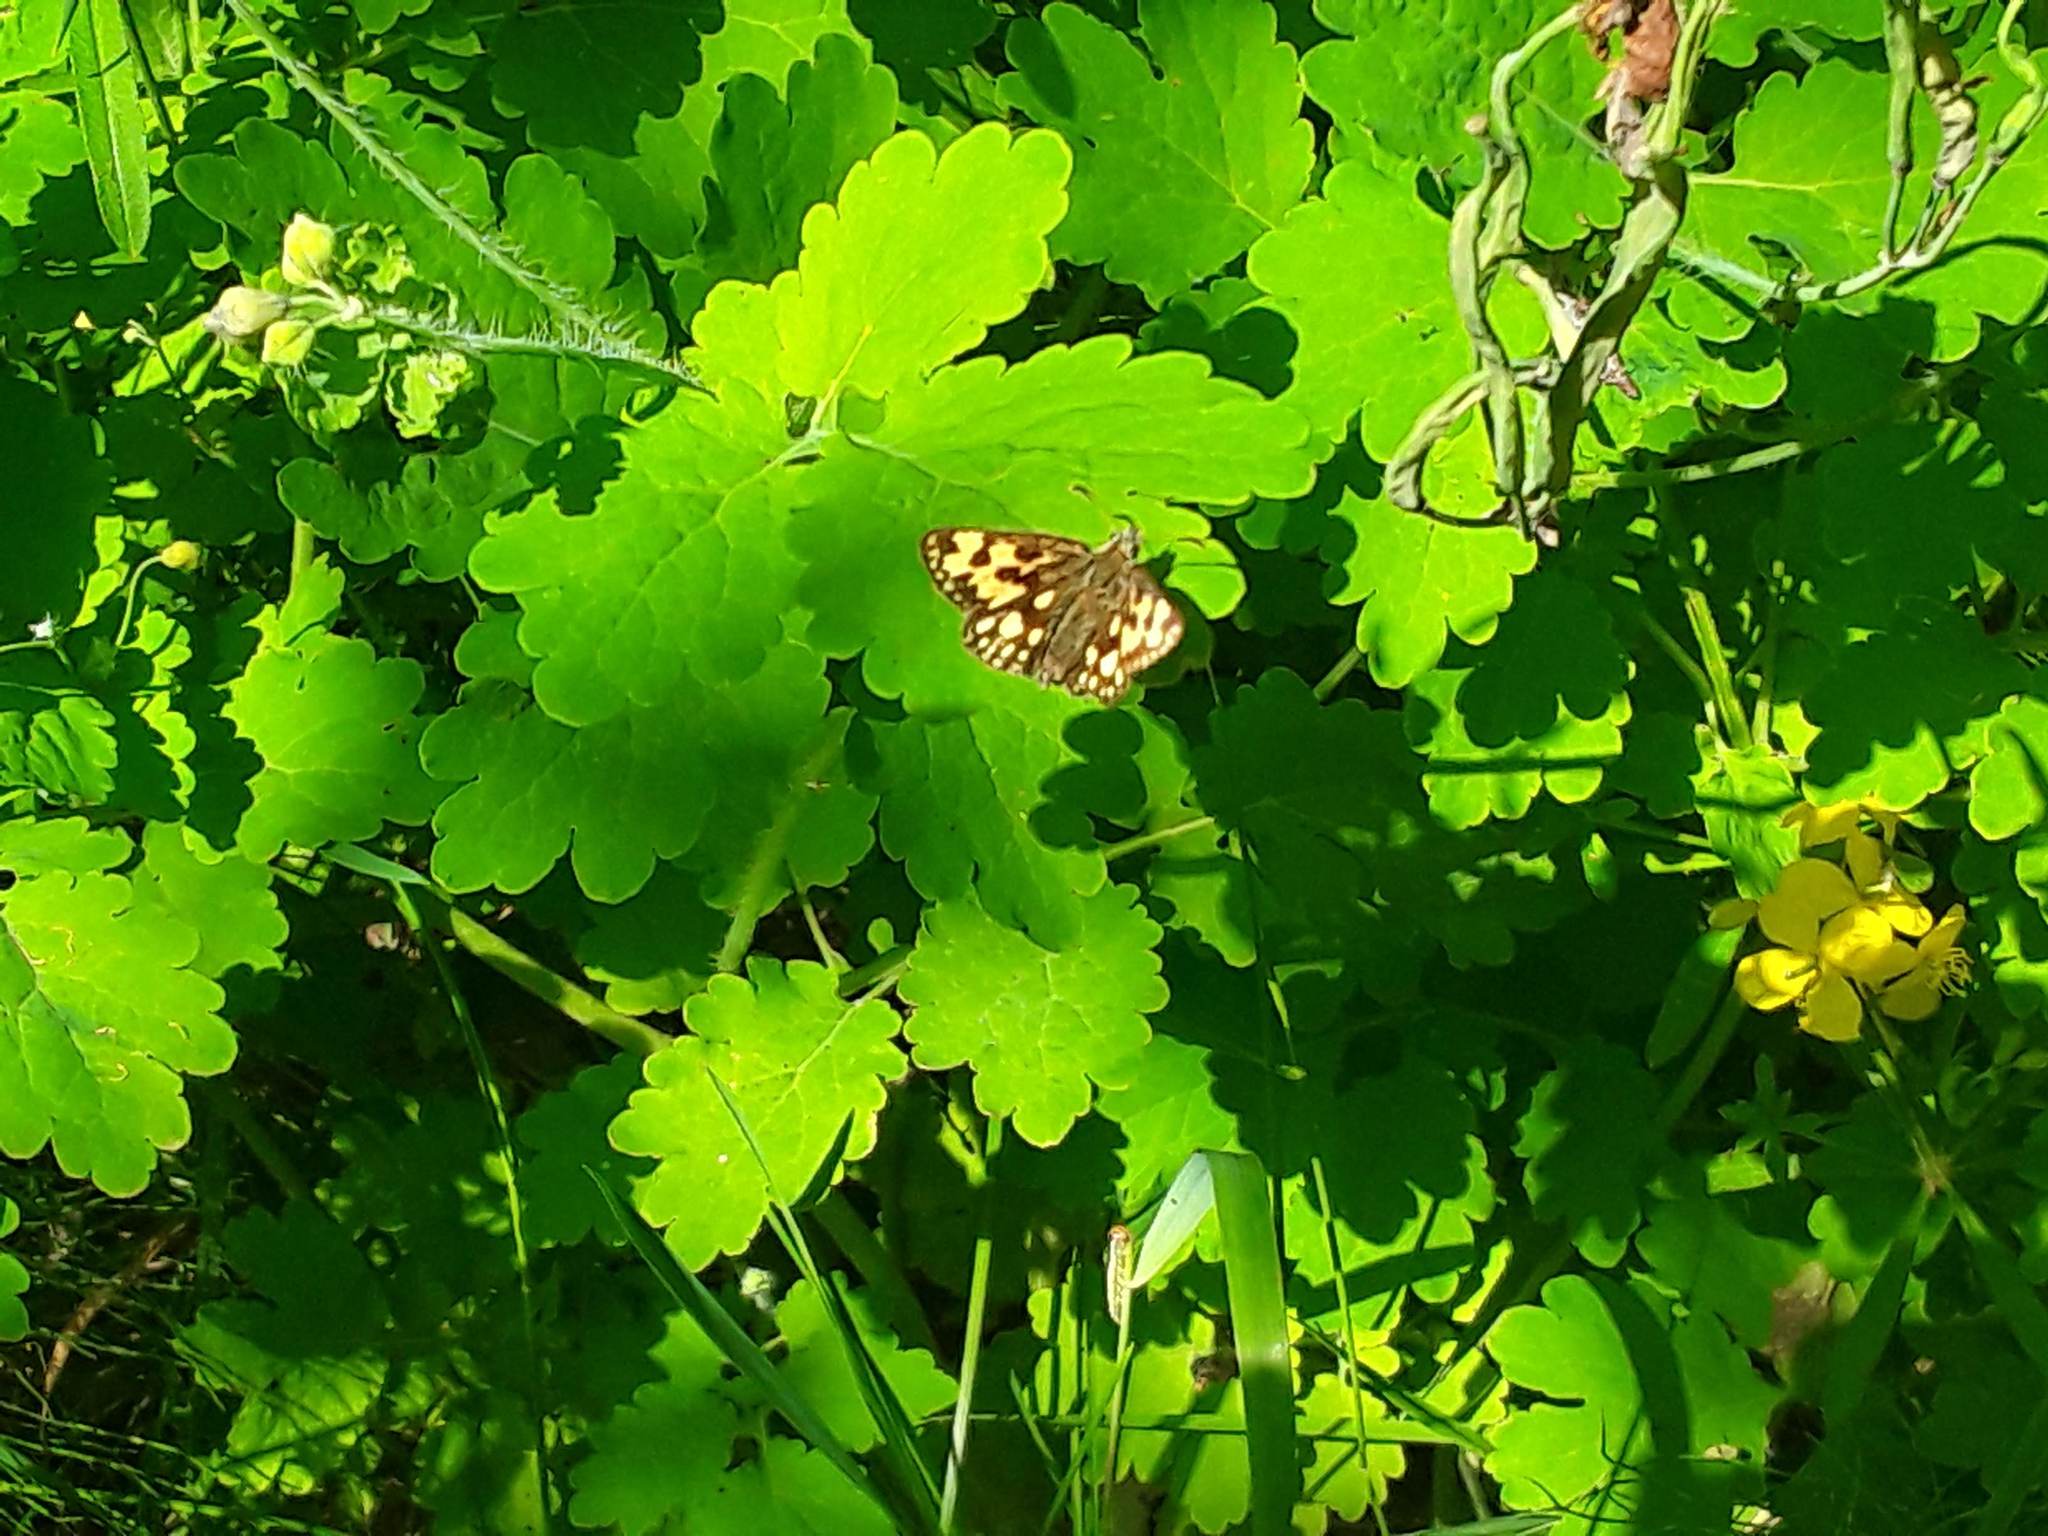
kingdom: Animalia
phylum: Arthropoda
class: Insecta
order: Lepidoptera
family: Hesperiidae
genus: Carterocephalus
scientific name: Carterocephalus silvicola
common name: Northern chequered skipper
